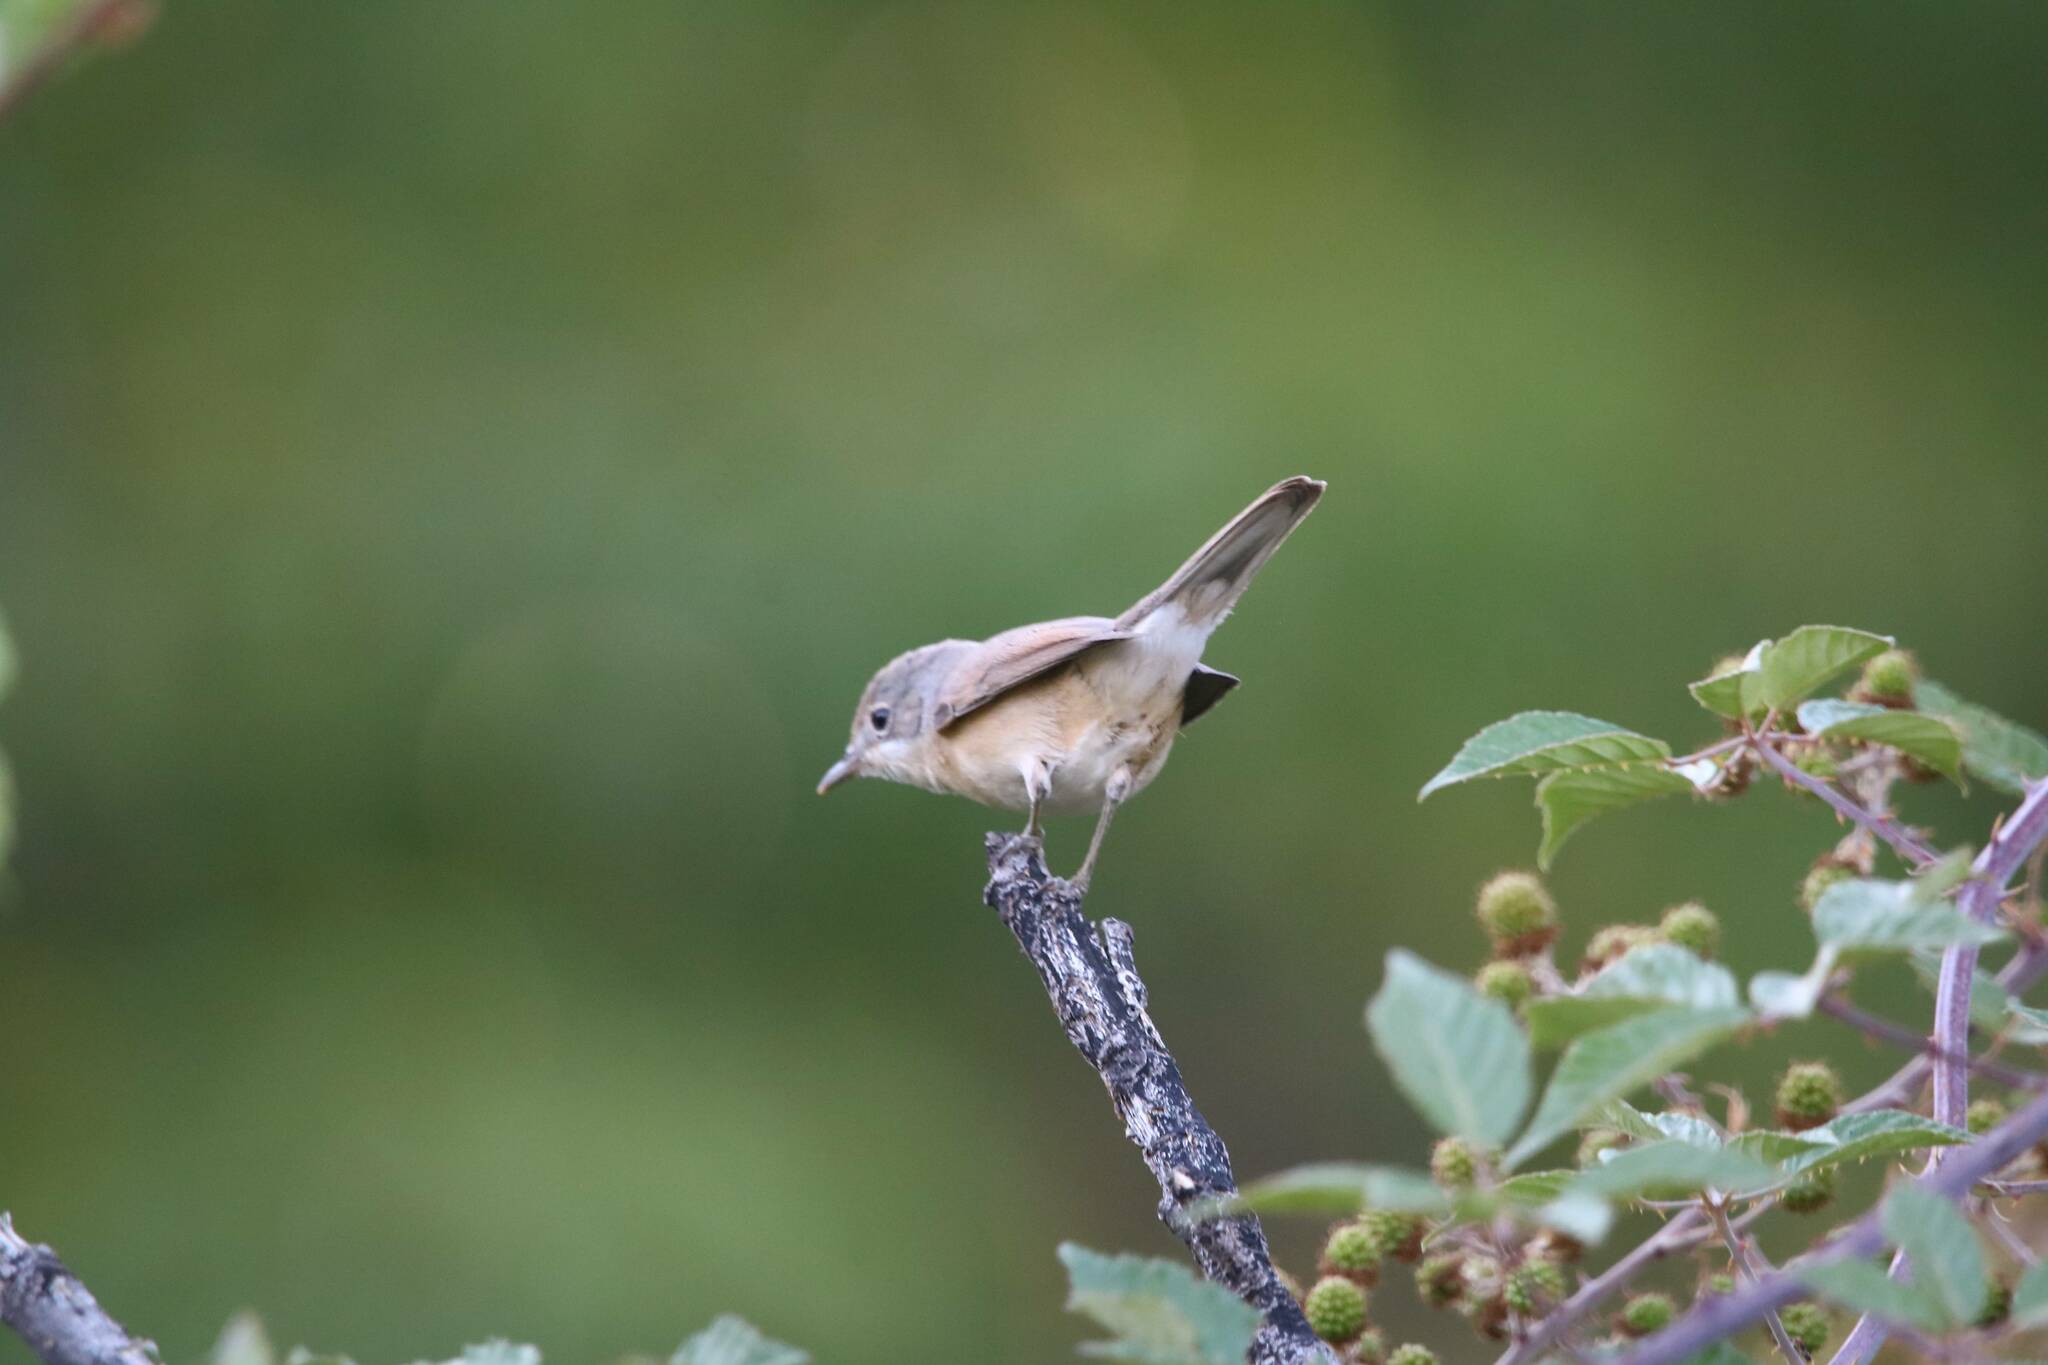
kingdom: Animalia
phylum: Chordata
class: Aves
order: Passeriformes
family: Sylviidae
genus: Curruca
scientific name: Curruca iberiae
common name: Western subalpine warbler
